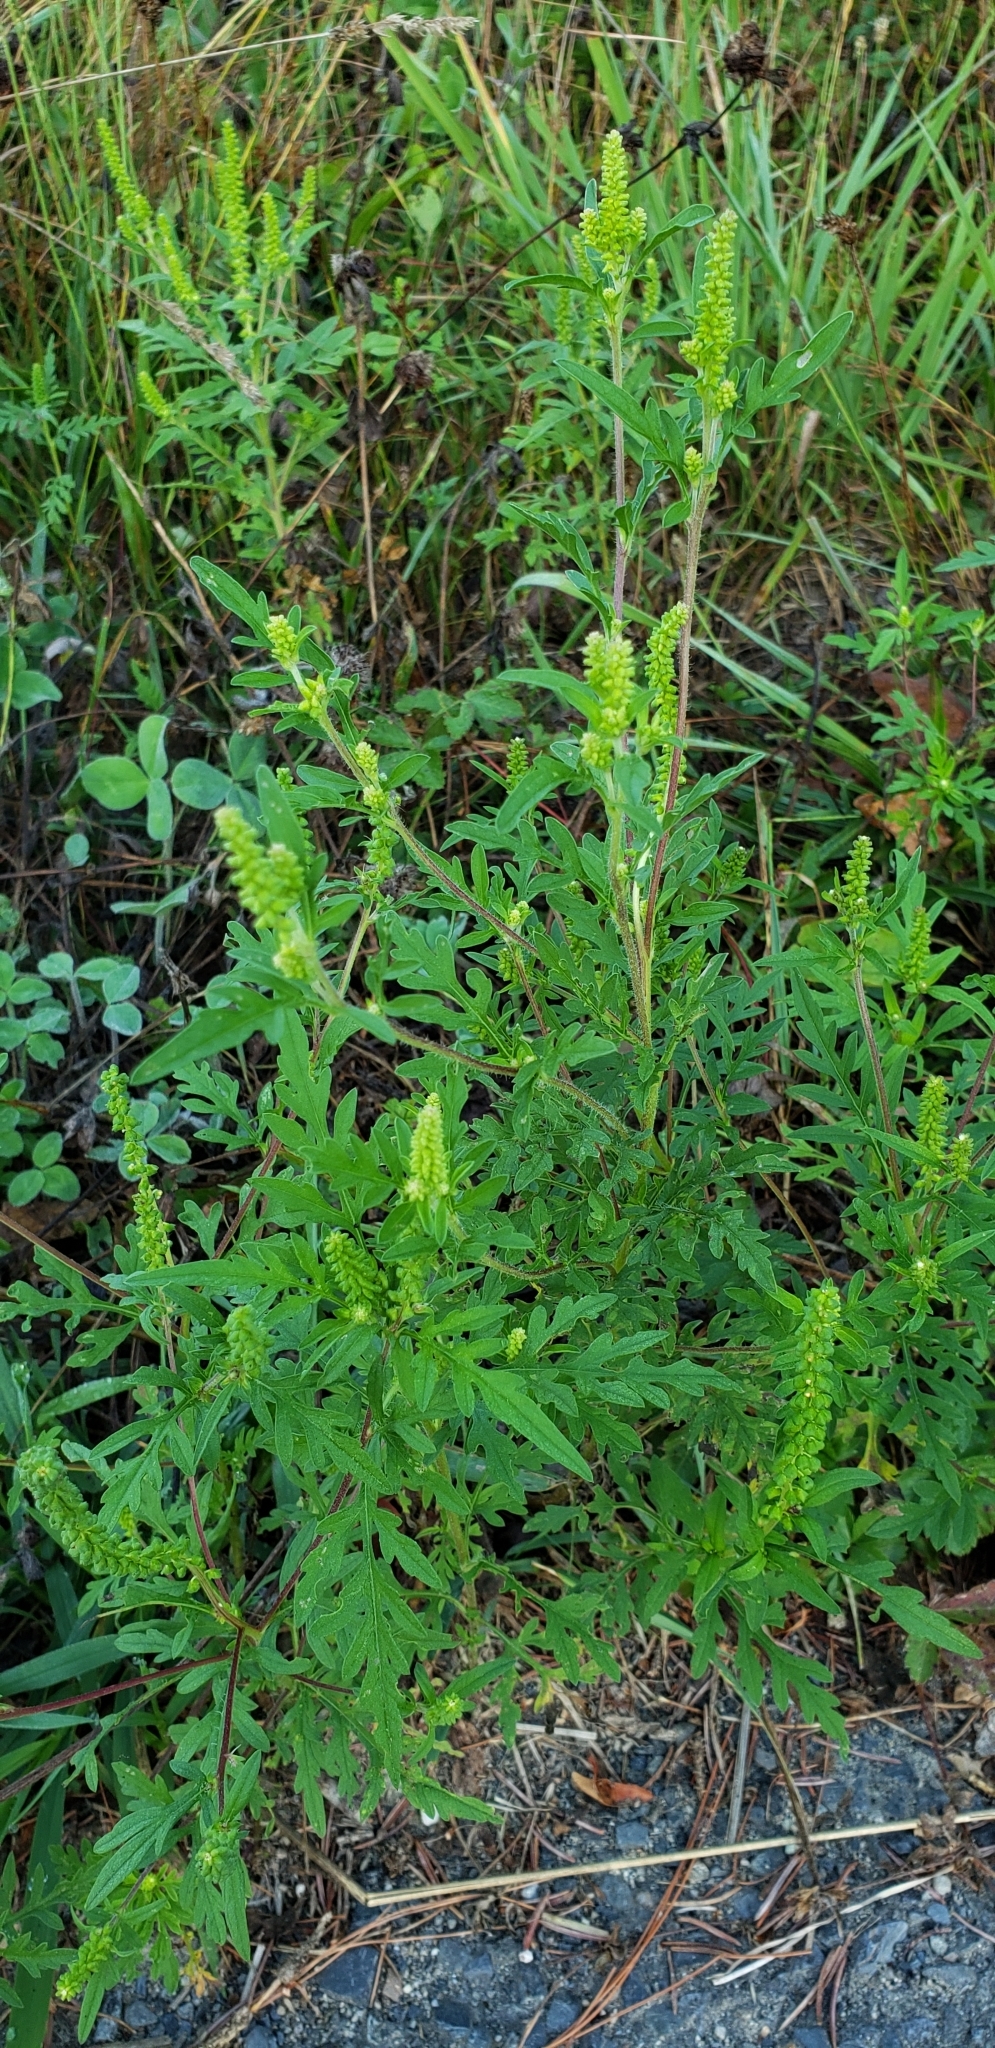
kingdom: Plantae
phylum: Tracheophyta
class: Magnoliopsida
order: Asterales
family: Asteraceae
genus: Ambrosia
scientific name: Ambrosia artemisiifolia
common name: Annual ragweed
